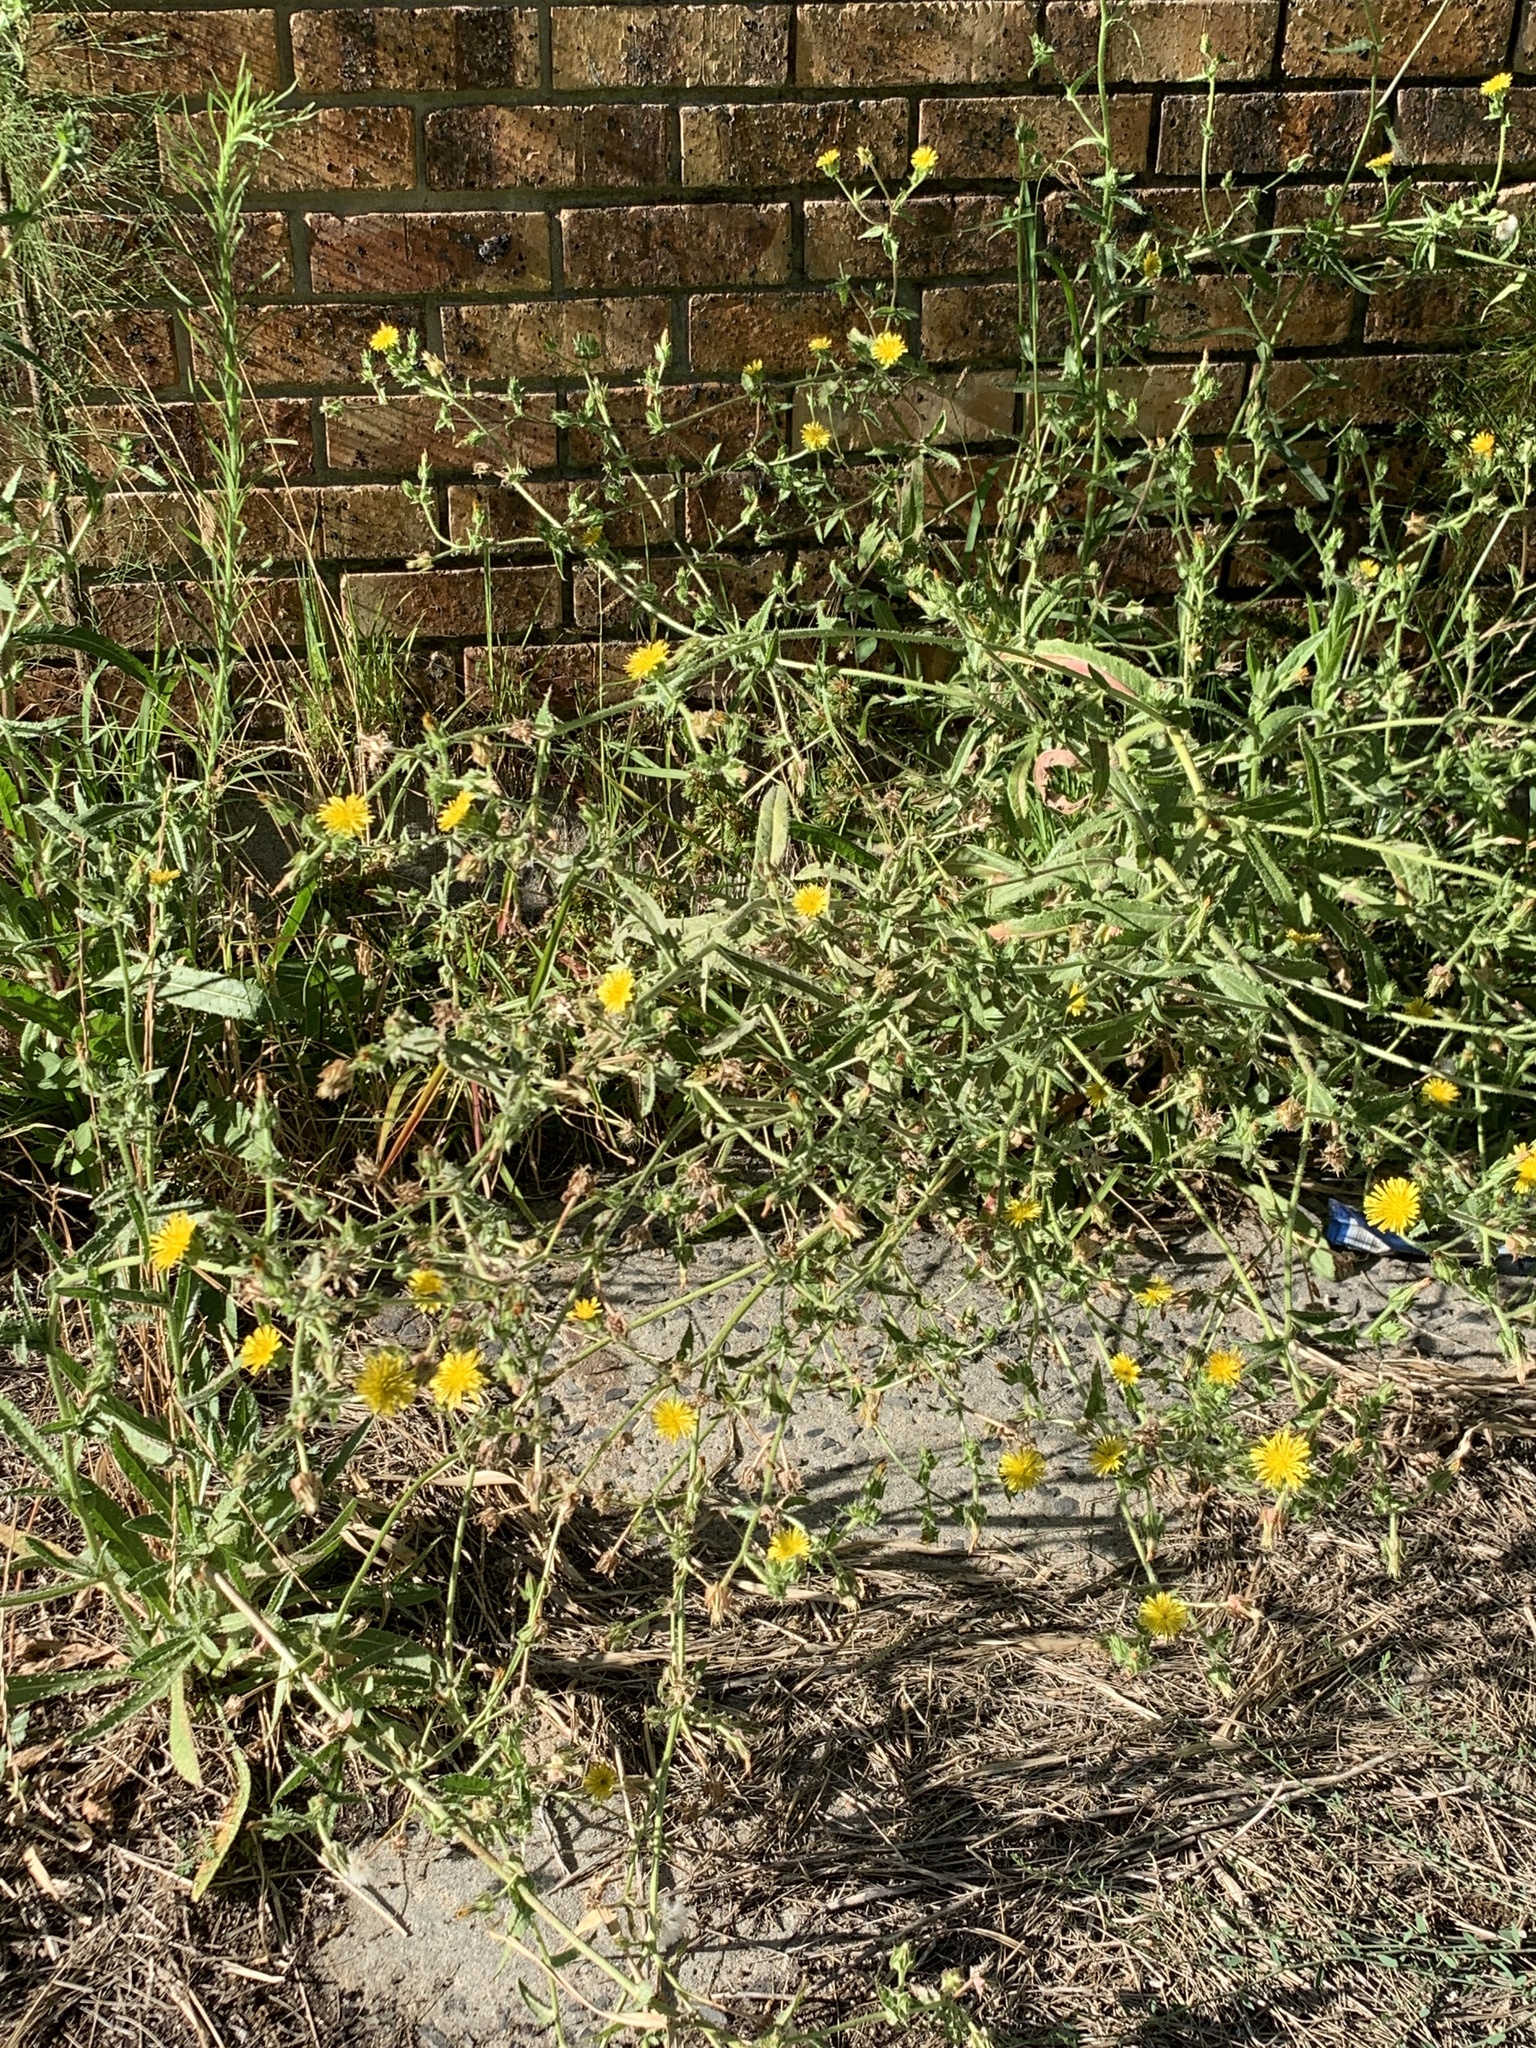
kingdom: Plantae
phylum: Tracheophyta
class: Magnoliopsida
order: Asterales
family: Asteraceae
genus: Helminthotheca
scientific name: Helminthotheca echioides
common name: Ox-tongue
